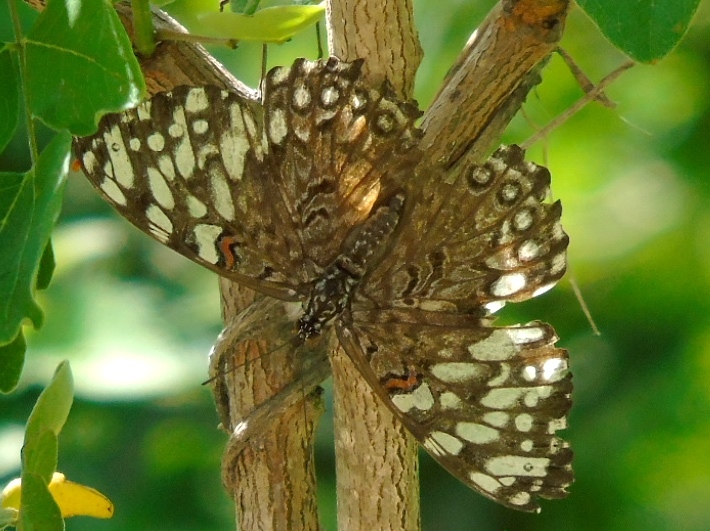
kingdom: Animalia
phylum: Arthropoda
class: Insecta
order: Lepidoptera
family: Nymphalidae
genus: Hamadryas
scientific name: Hamadryas
